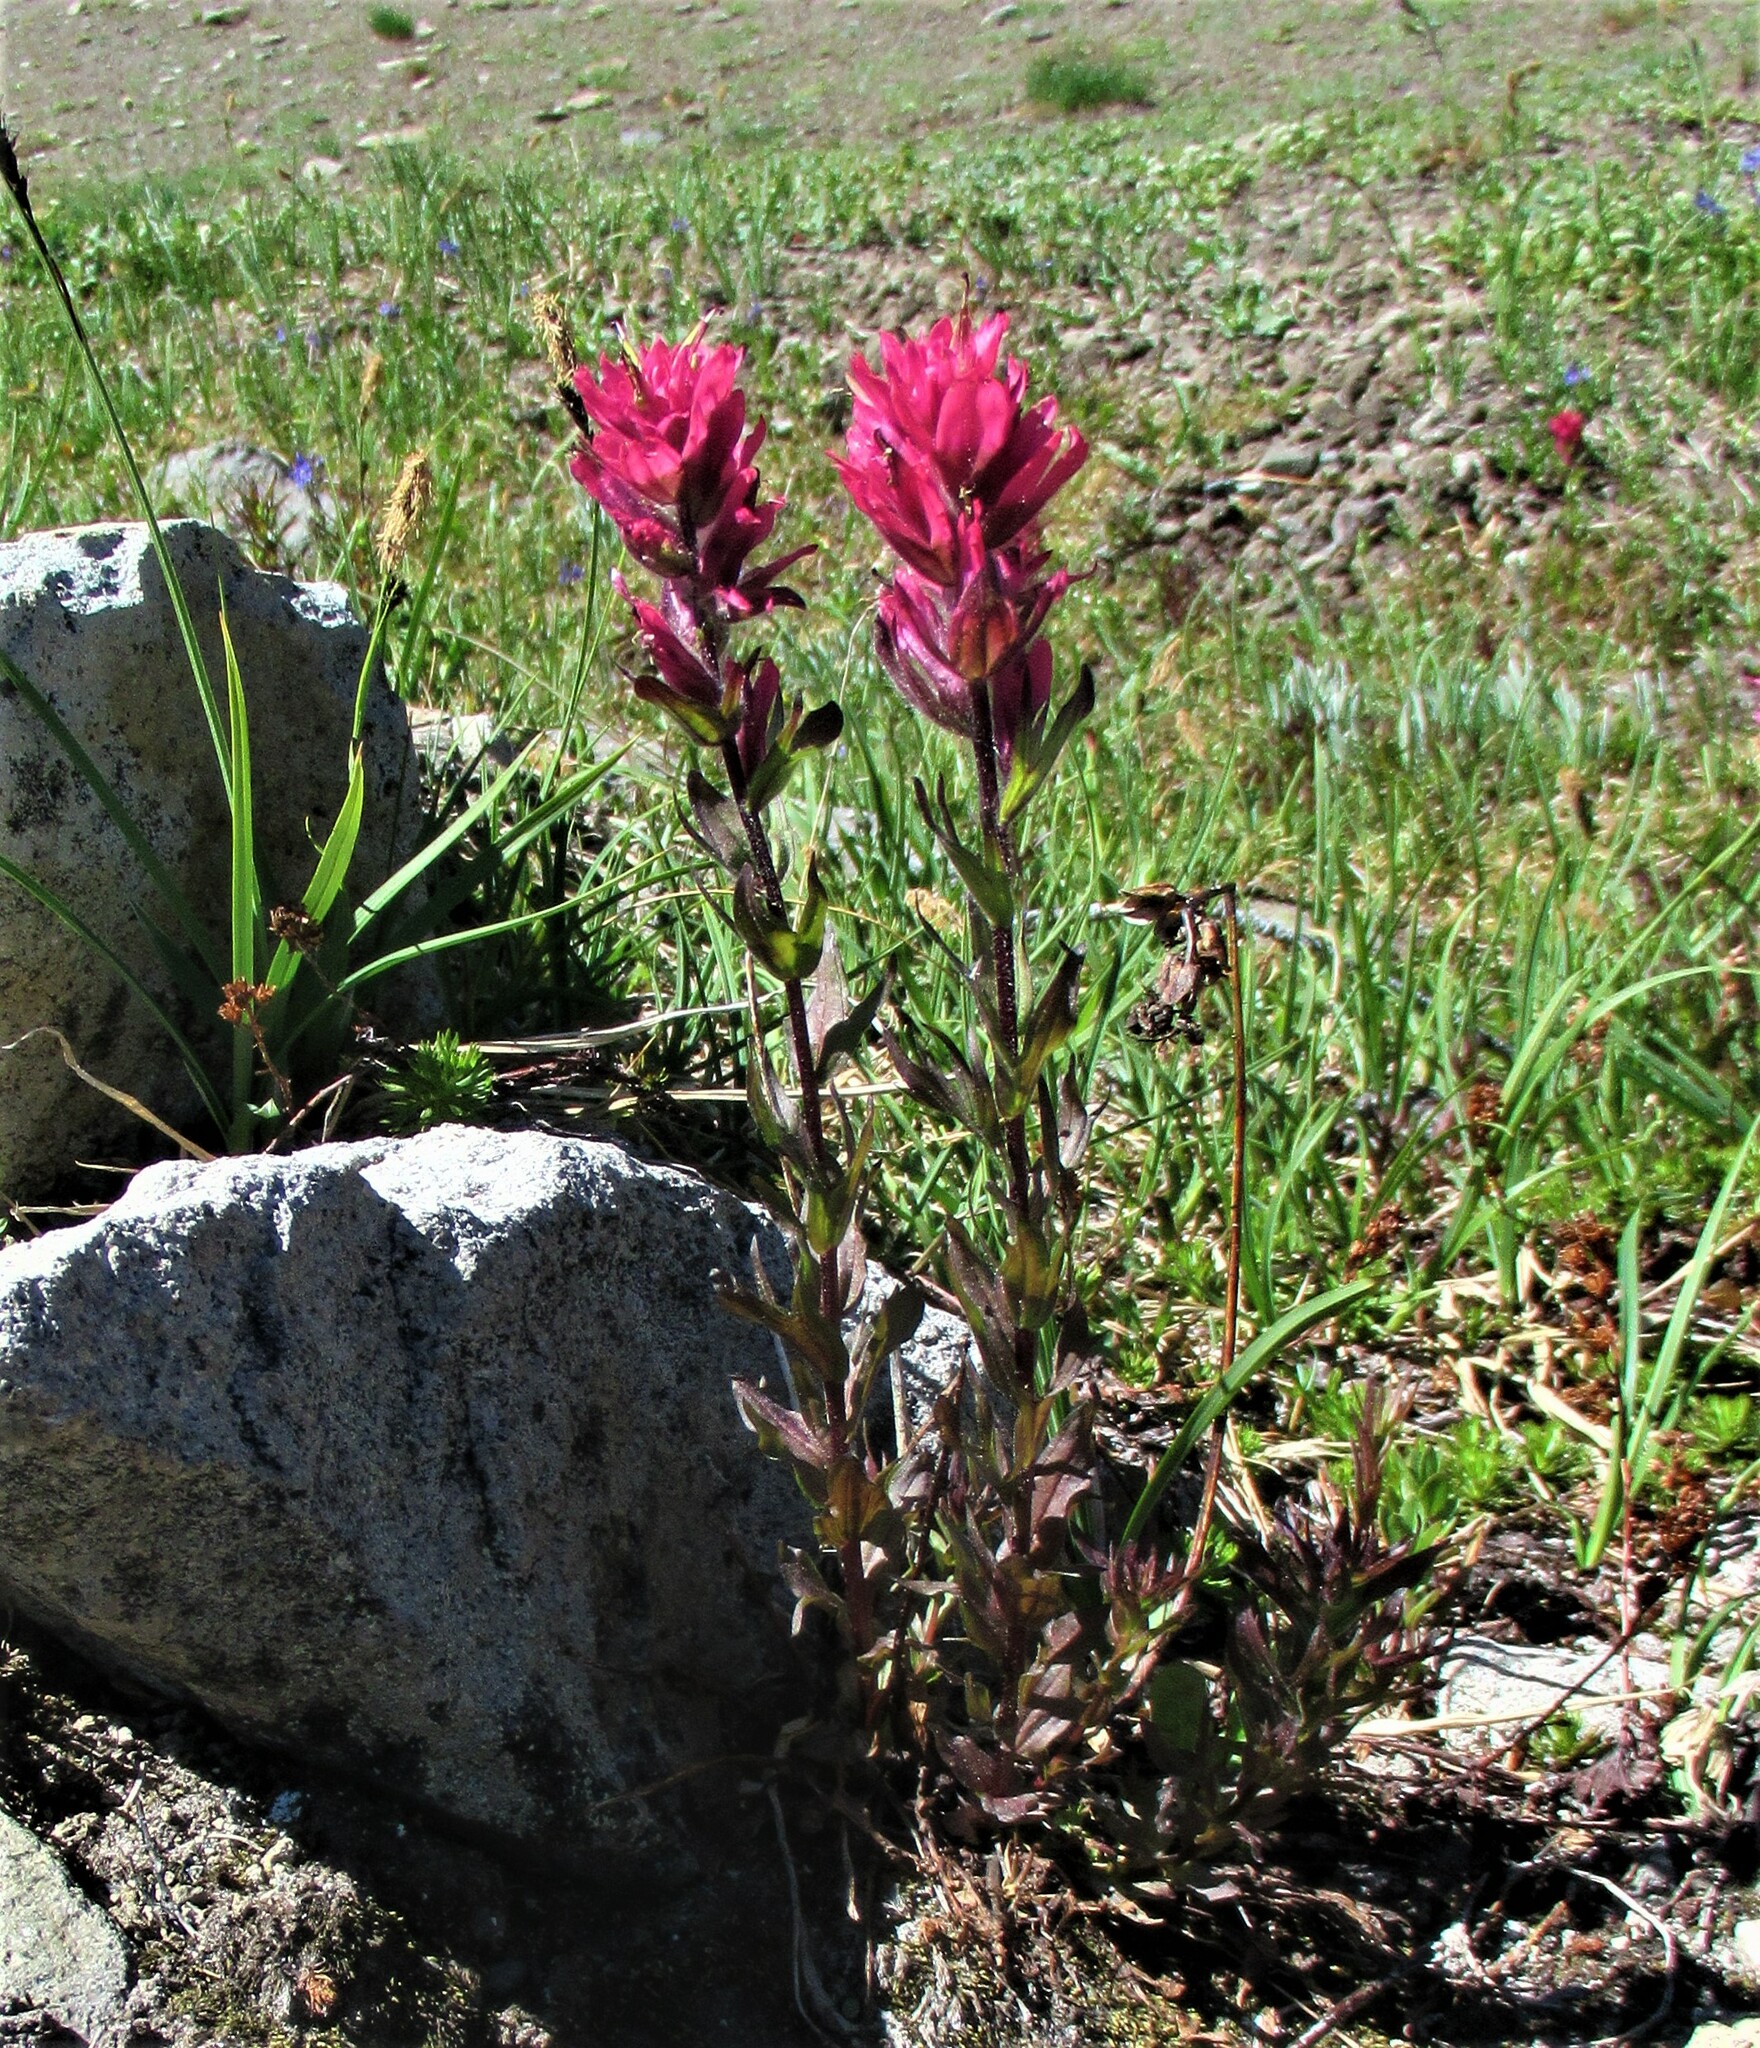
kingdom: Plantae
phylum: Tracheophyta
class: Magnoliopsida
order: Lamiales
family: Orobanchaceae
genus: Castilleja
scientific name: Castilleja parviflora
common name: Mountain paintbrush
